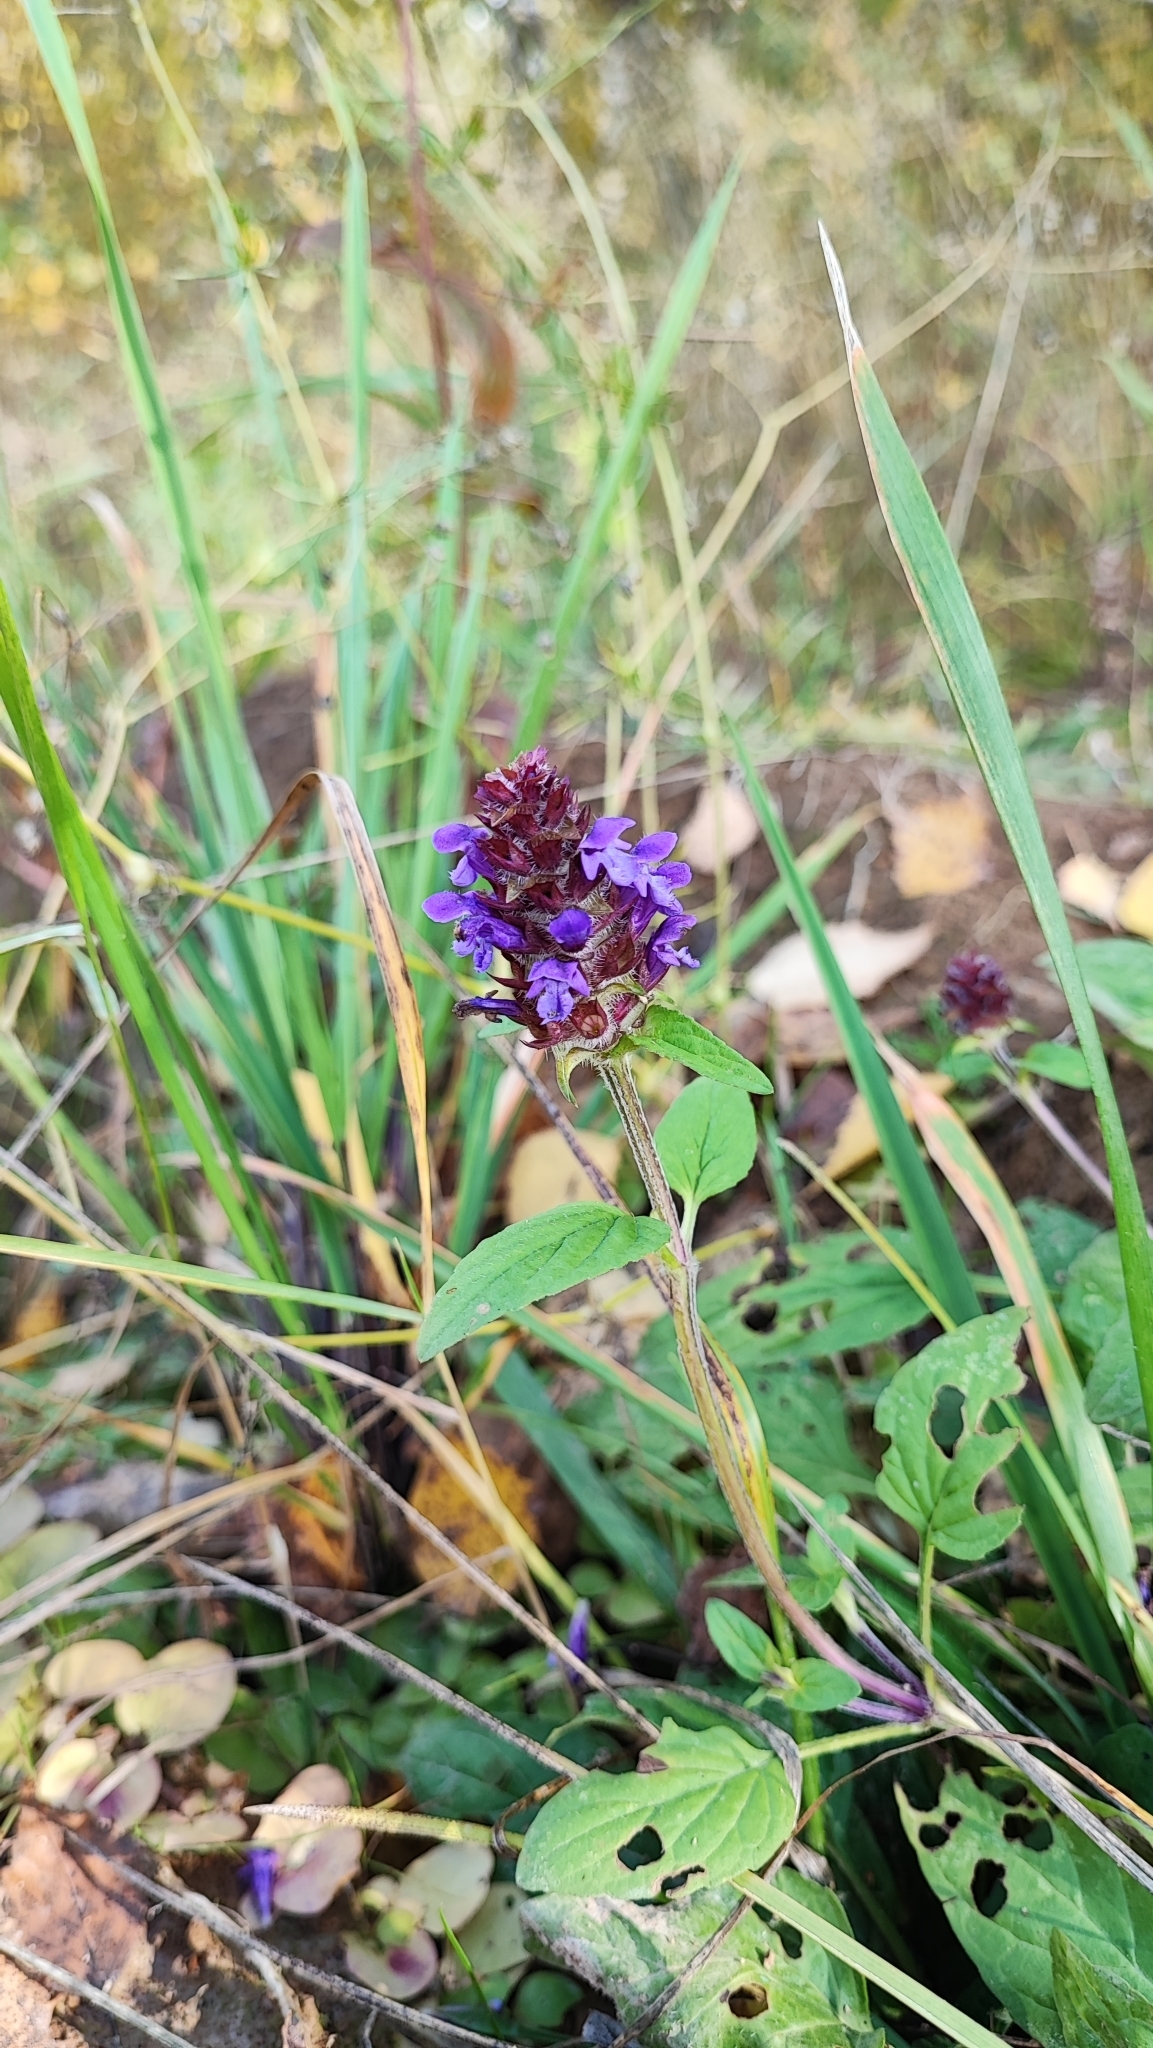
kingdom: Plantae
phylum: Tracheophyta
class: Magnoliopsida
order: Lamiales
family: Lamiaceae
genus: Prunella
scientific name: Prunella vulgaris
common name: Heal-all
